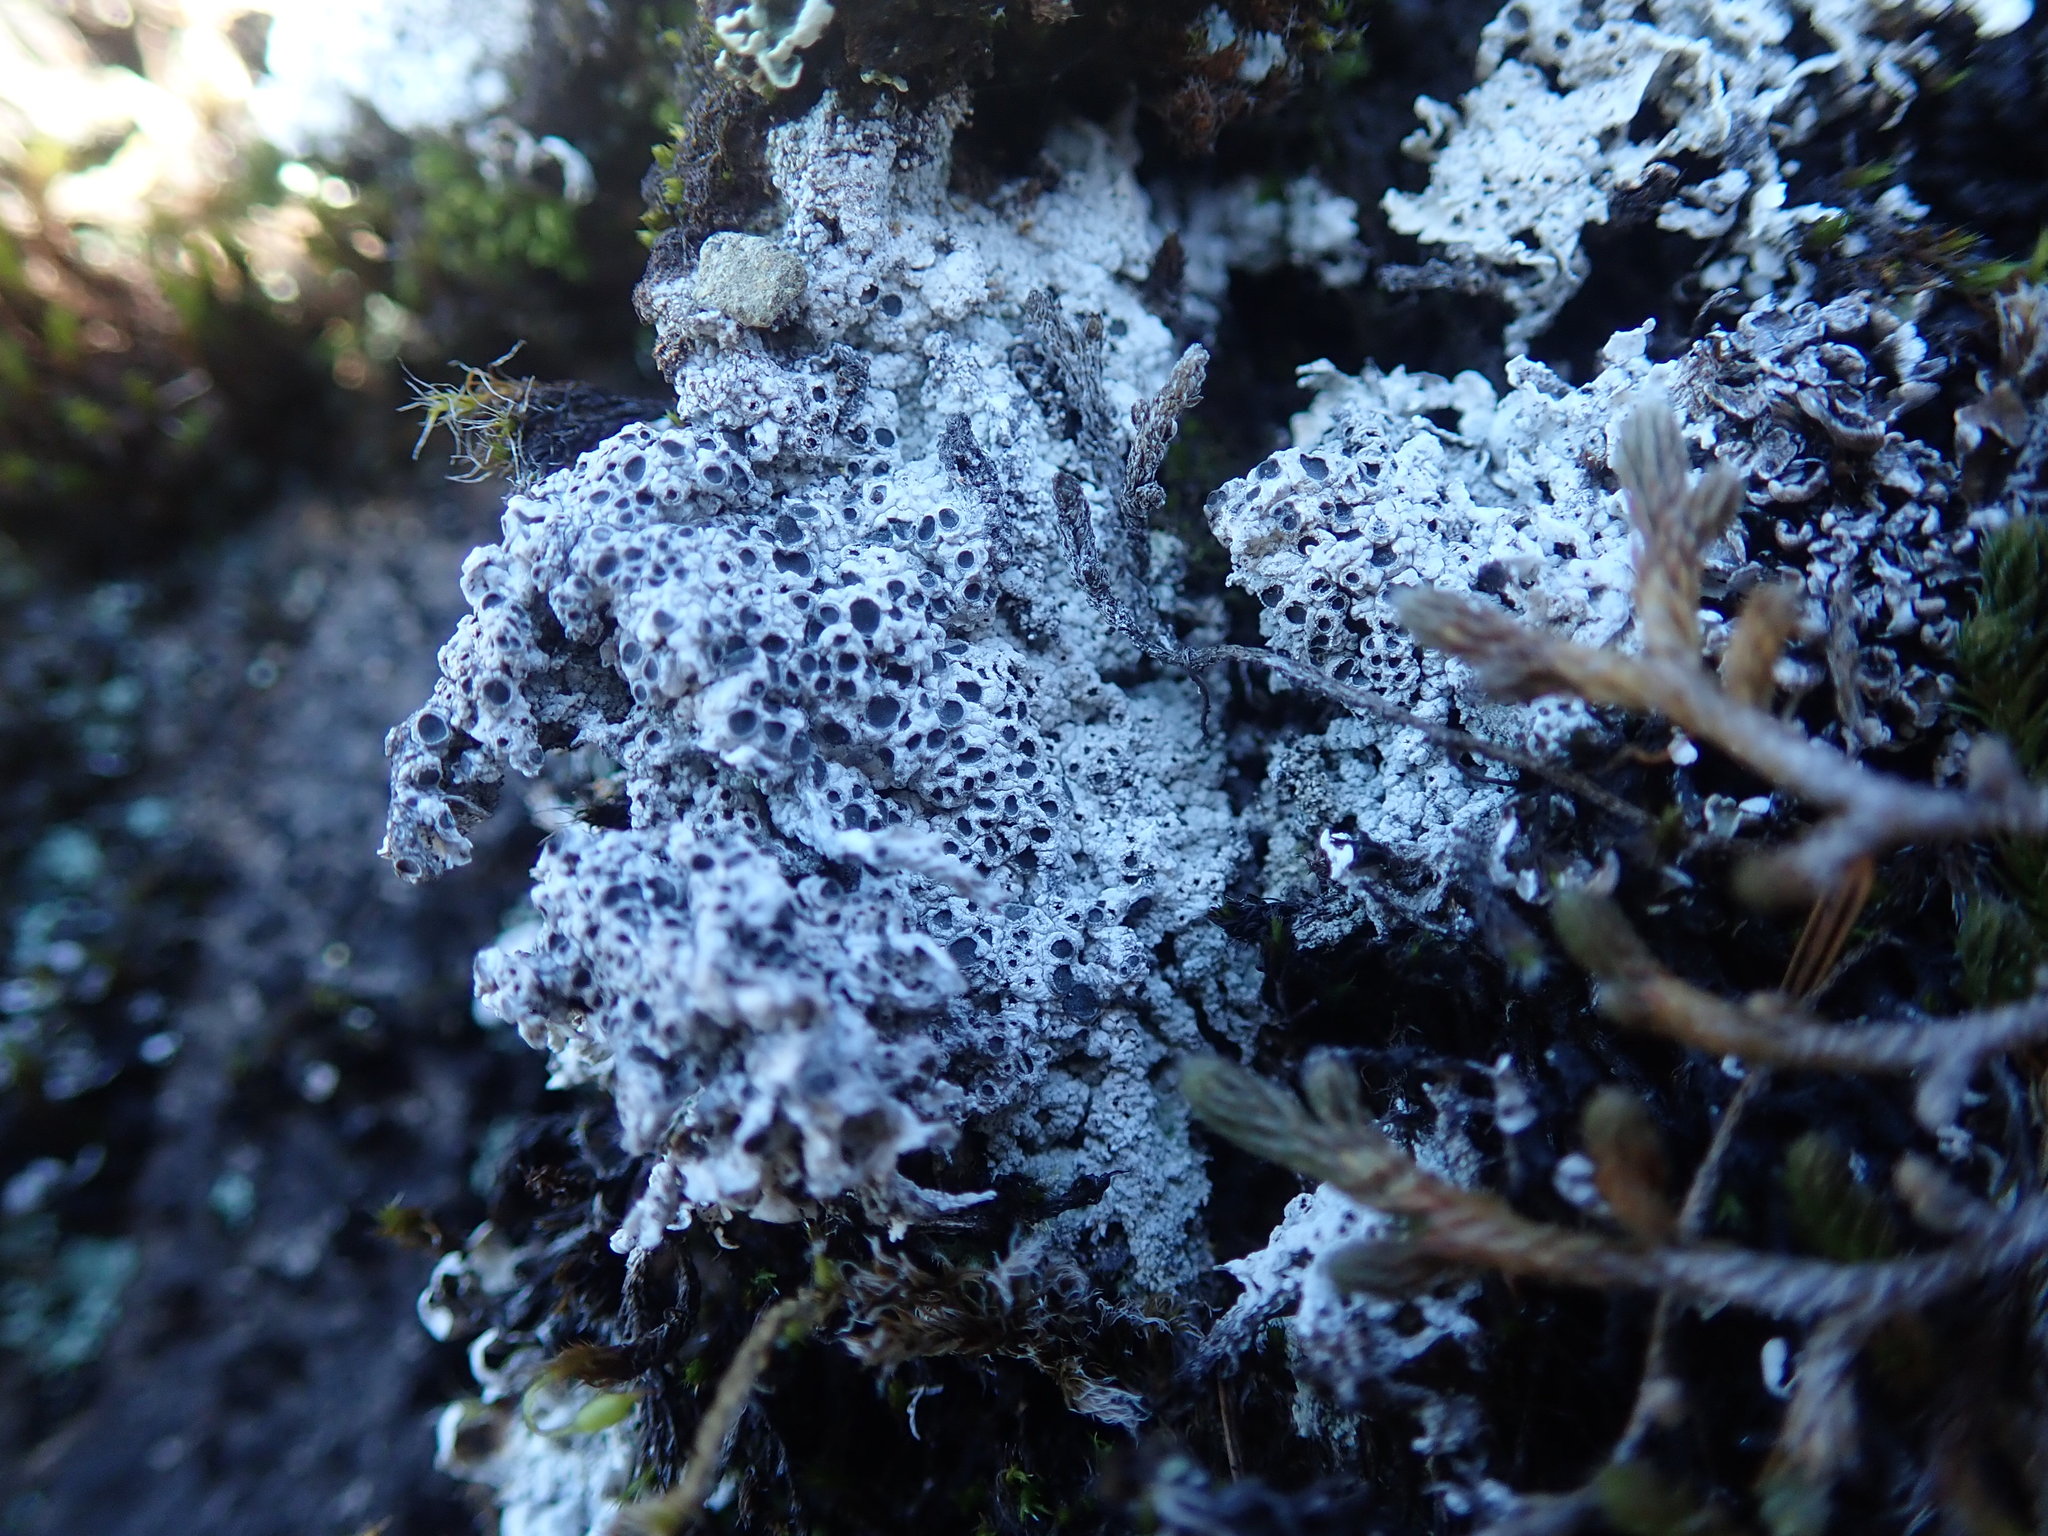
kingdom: Fungi
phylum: Ascomycota
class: Lecanoromycetes
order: Ostropales
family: Graphidaceae
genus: Diploschistes
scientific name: Diploschistes muscorum
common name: Cowpie lichen
